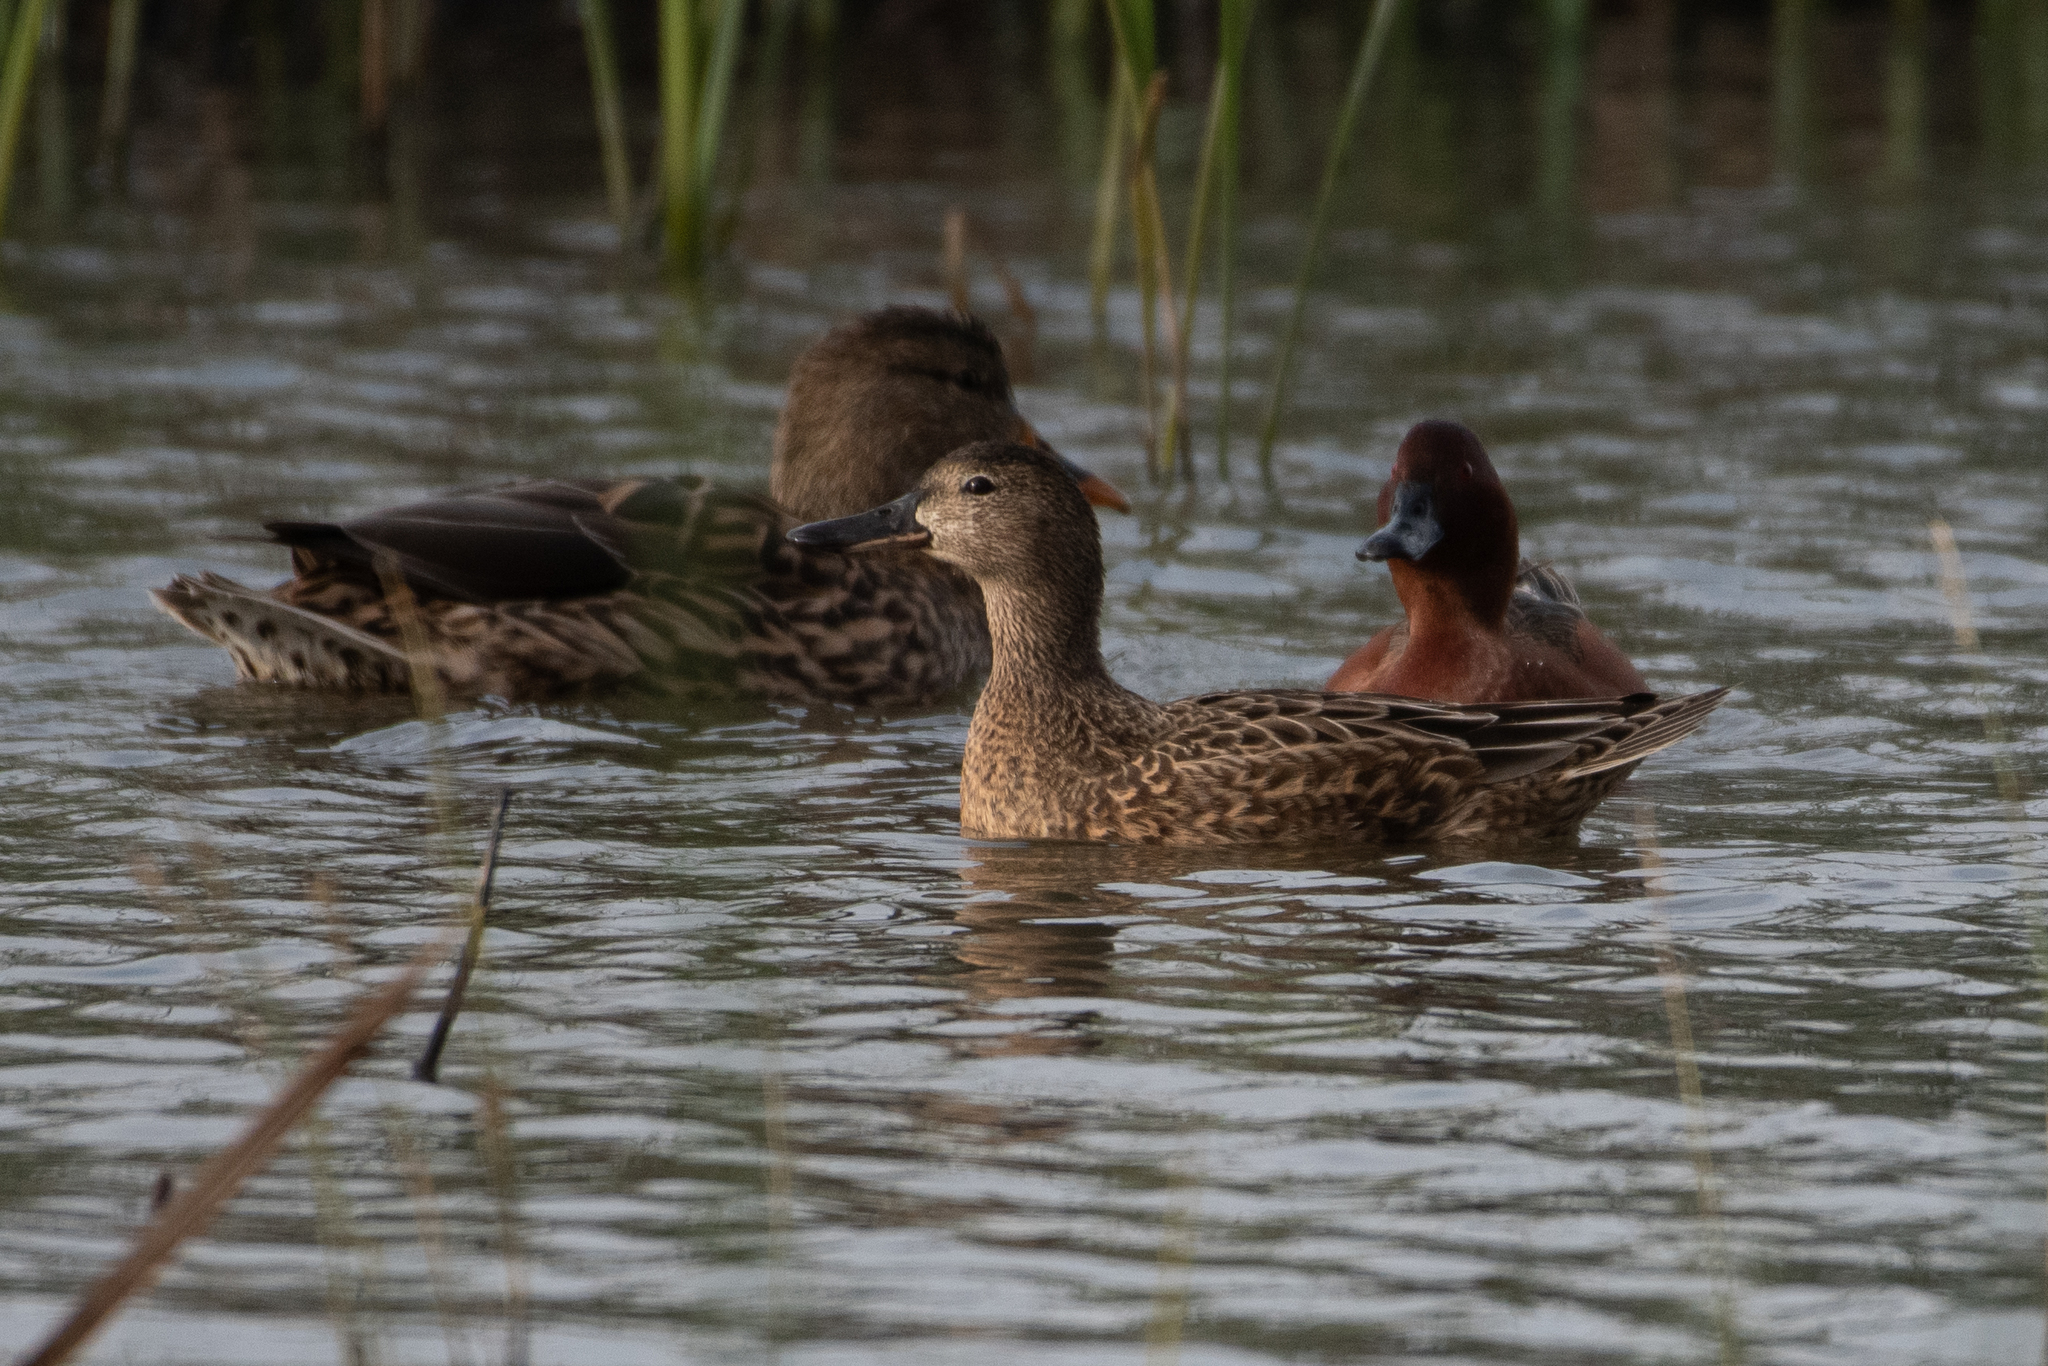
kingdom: Animalia
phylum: Chordata
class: Aves
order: Anseriformes
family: Anatidae
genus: Spatula
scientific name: Spatula cyanoptera
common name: Cinnamon teal
